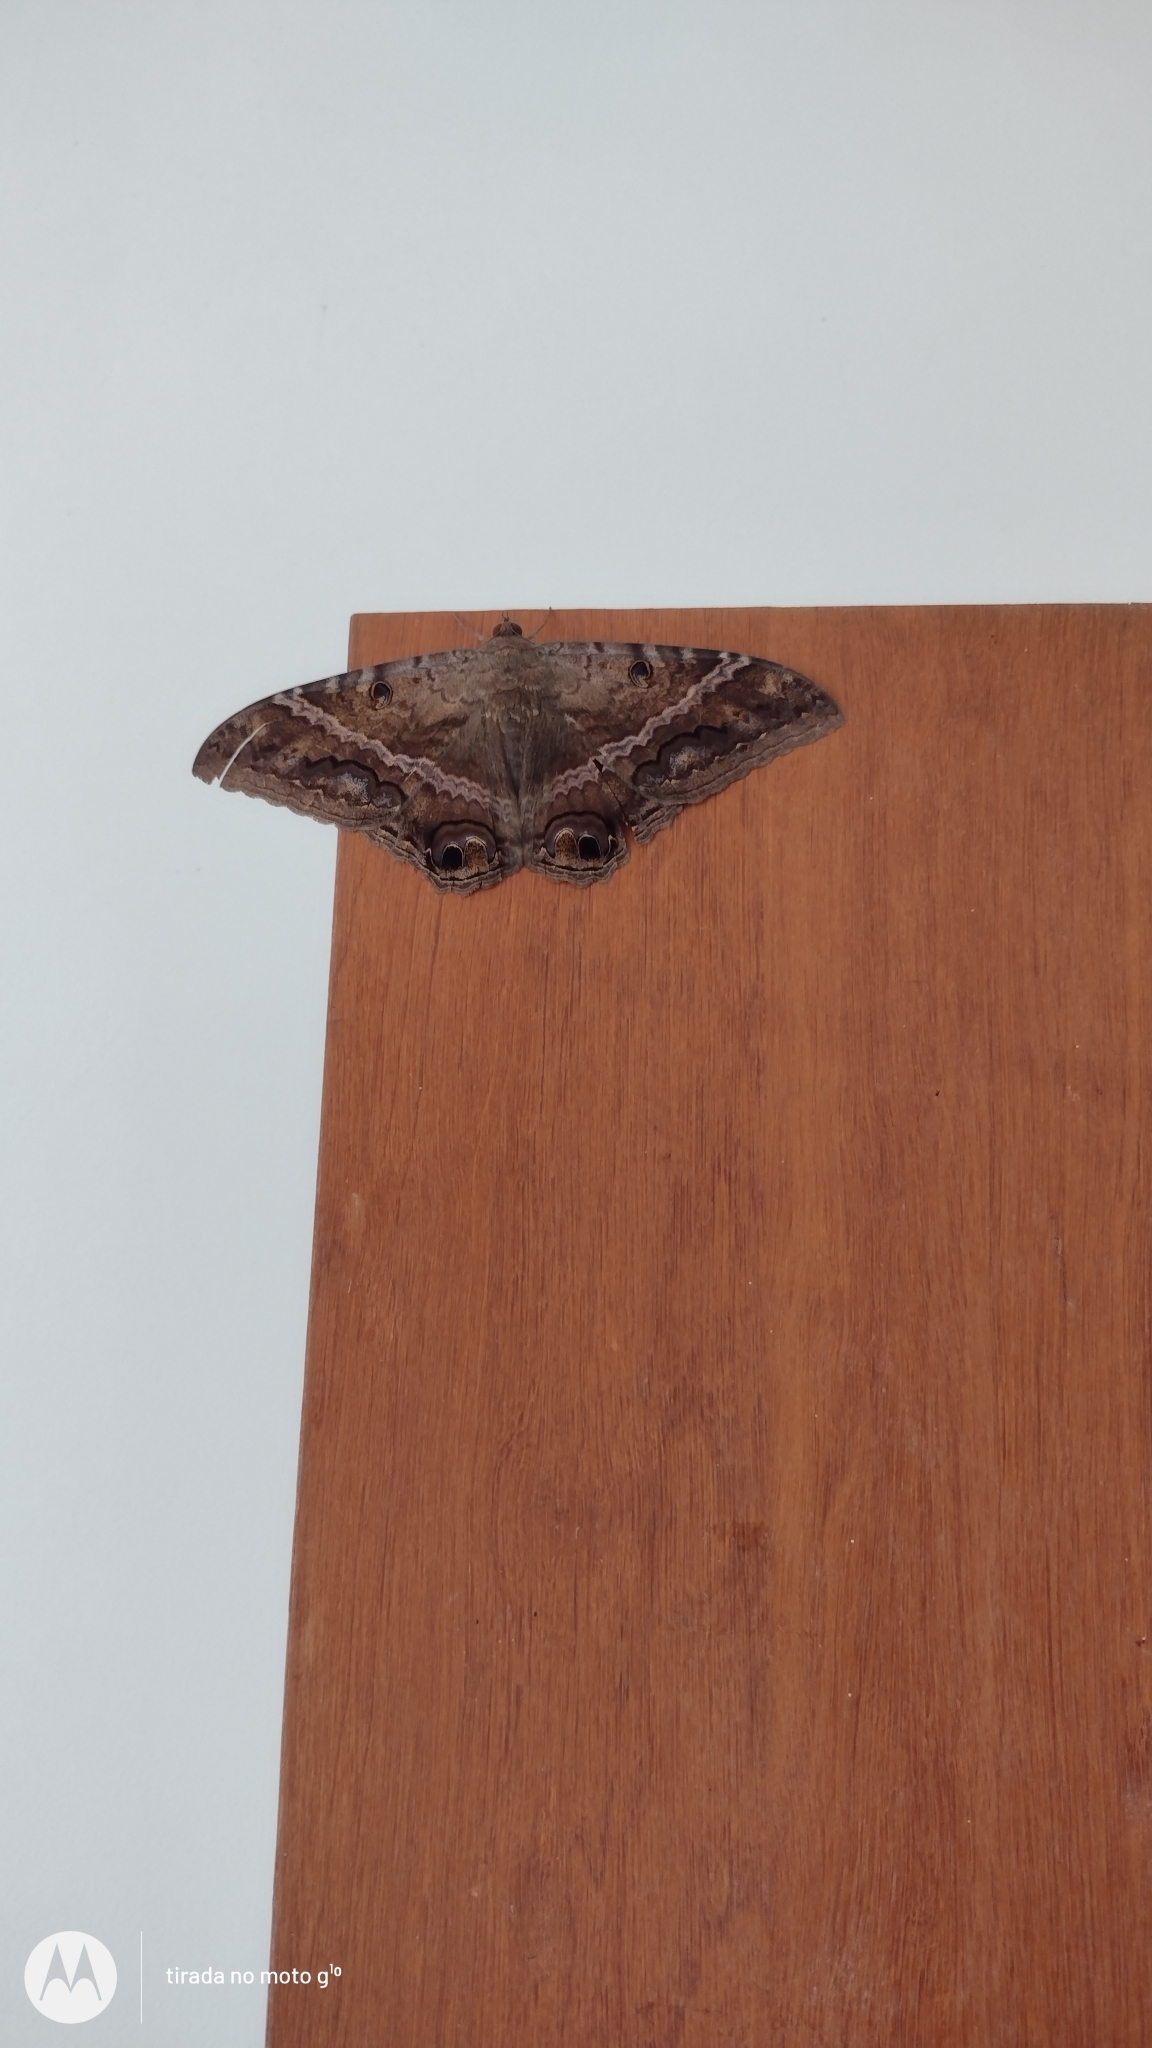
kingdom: Animalia
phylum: Arthropoda
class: Insecta
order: Lepidoptera
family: Erebidae
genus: Ascalapha
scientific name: Ascalapha odorata
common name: Black witch
